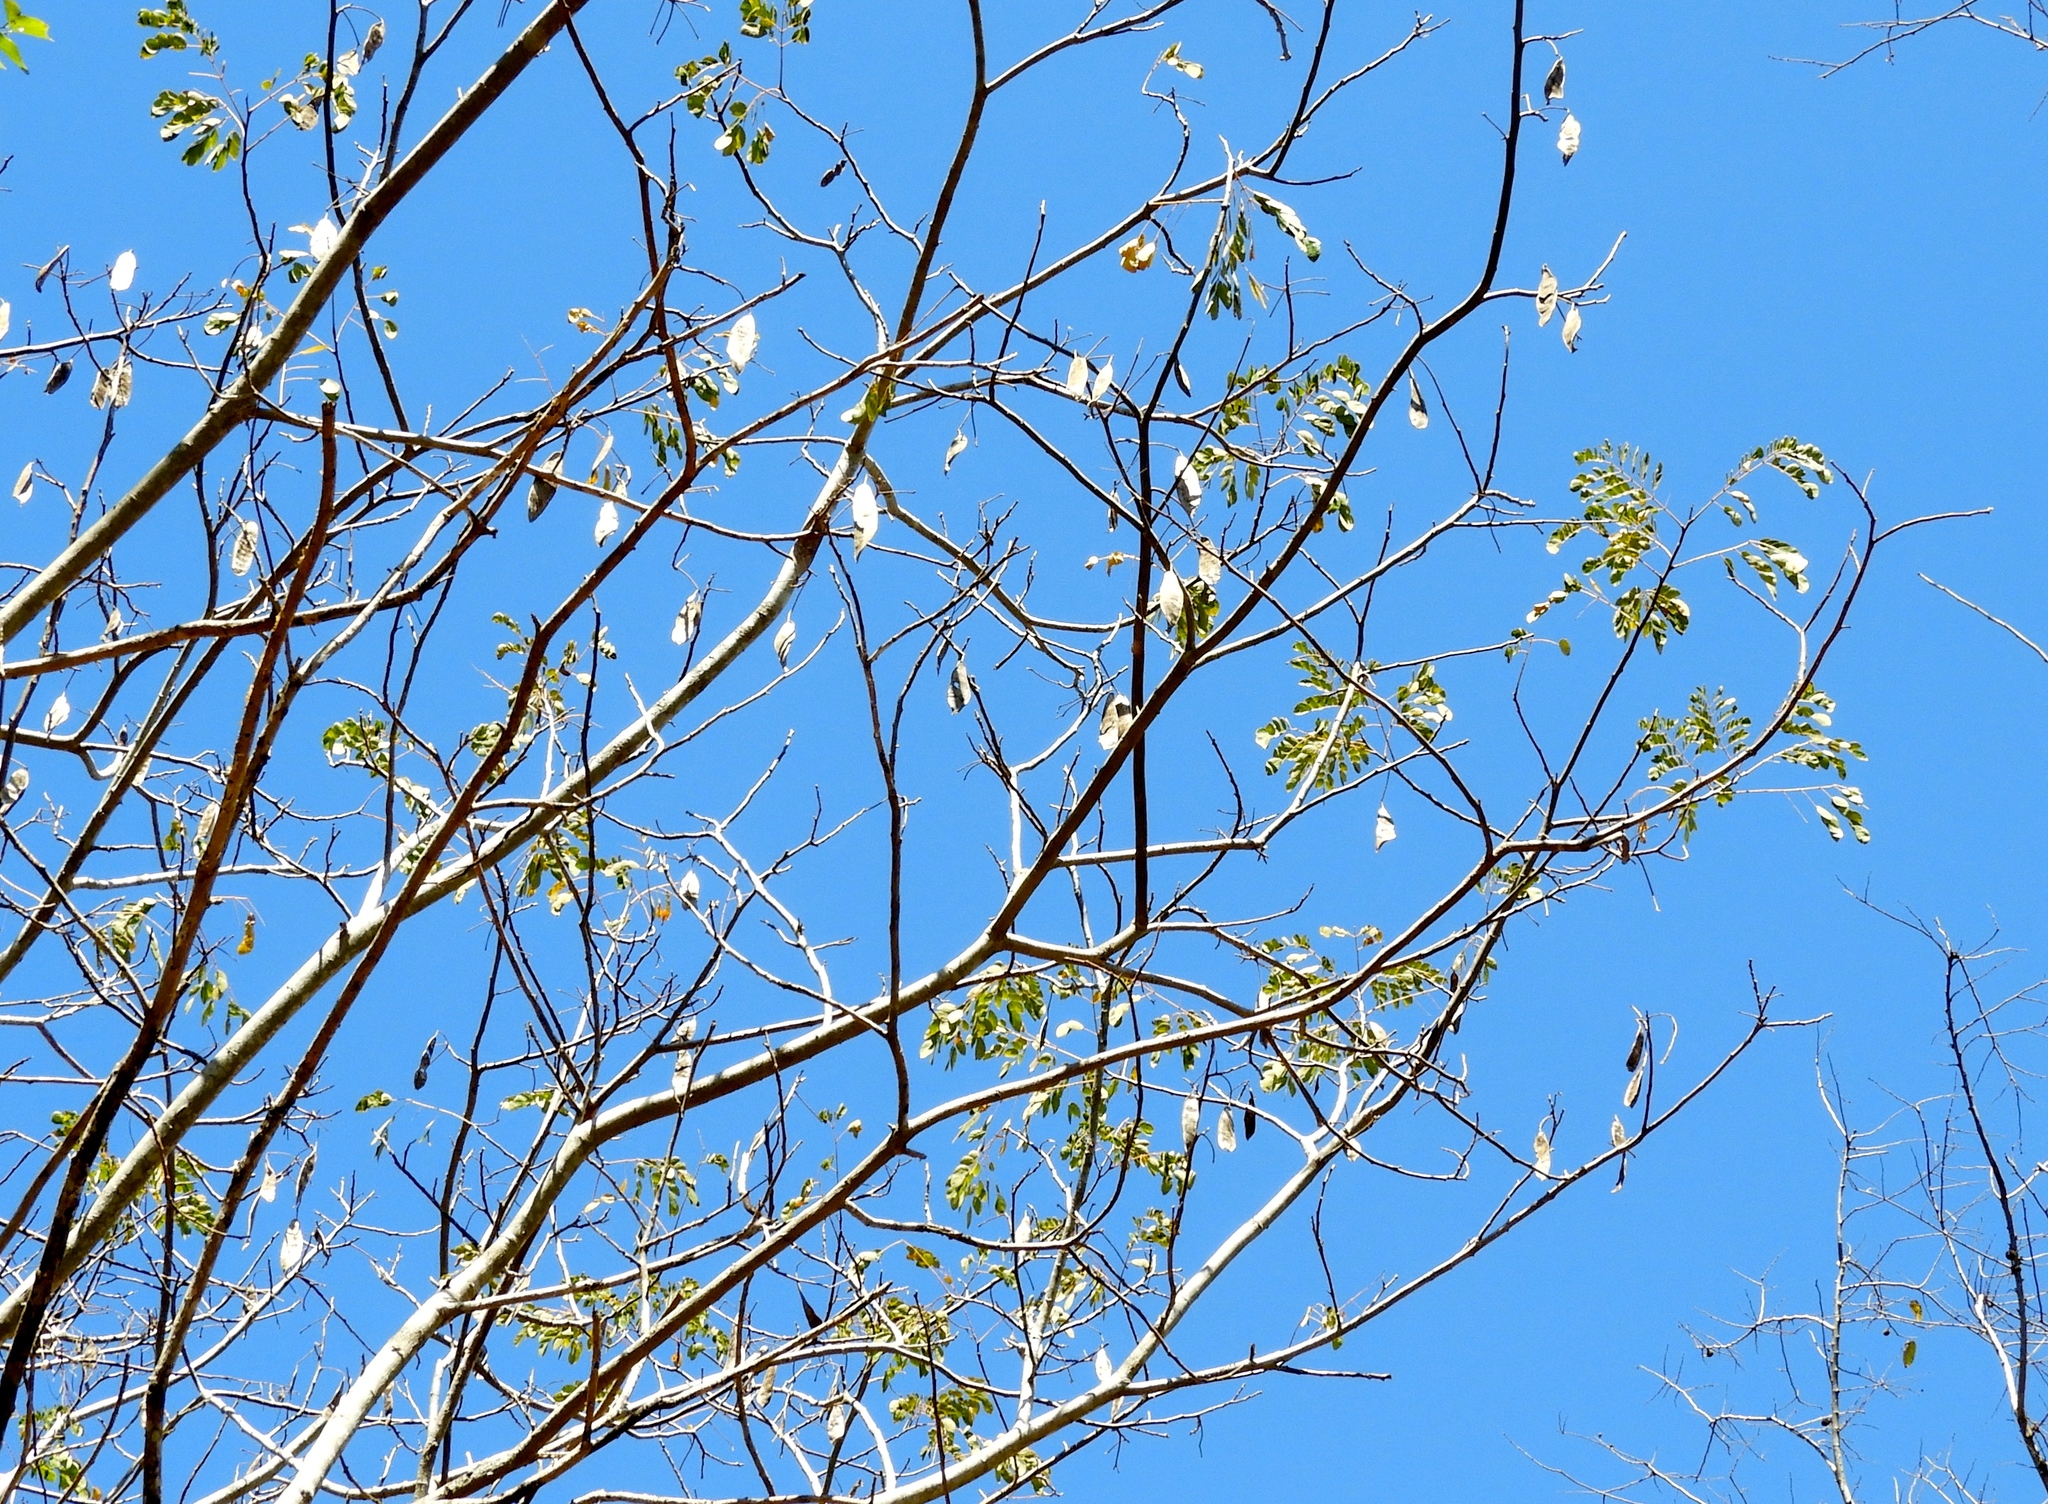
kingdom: Plantae
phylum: Tracheophyta
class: Magnoliopsida
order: Fabales
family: Fabaceae
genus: Albizia
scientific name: Albizia occidentalis
